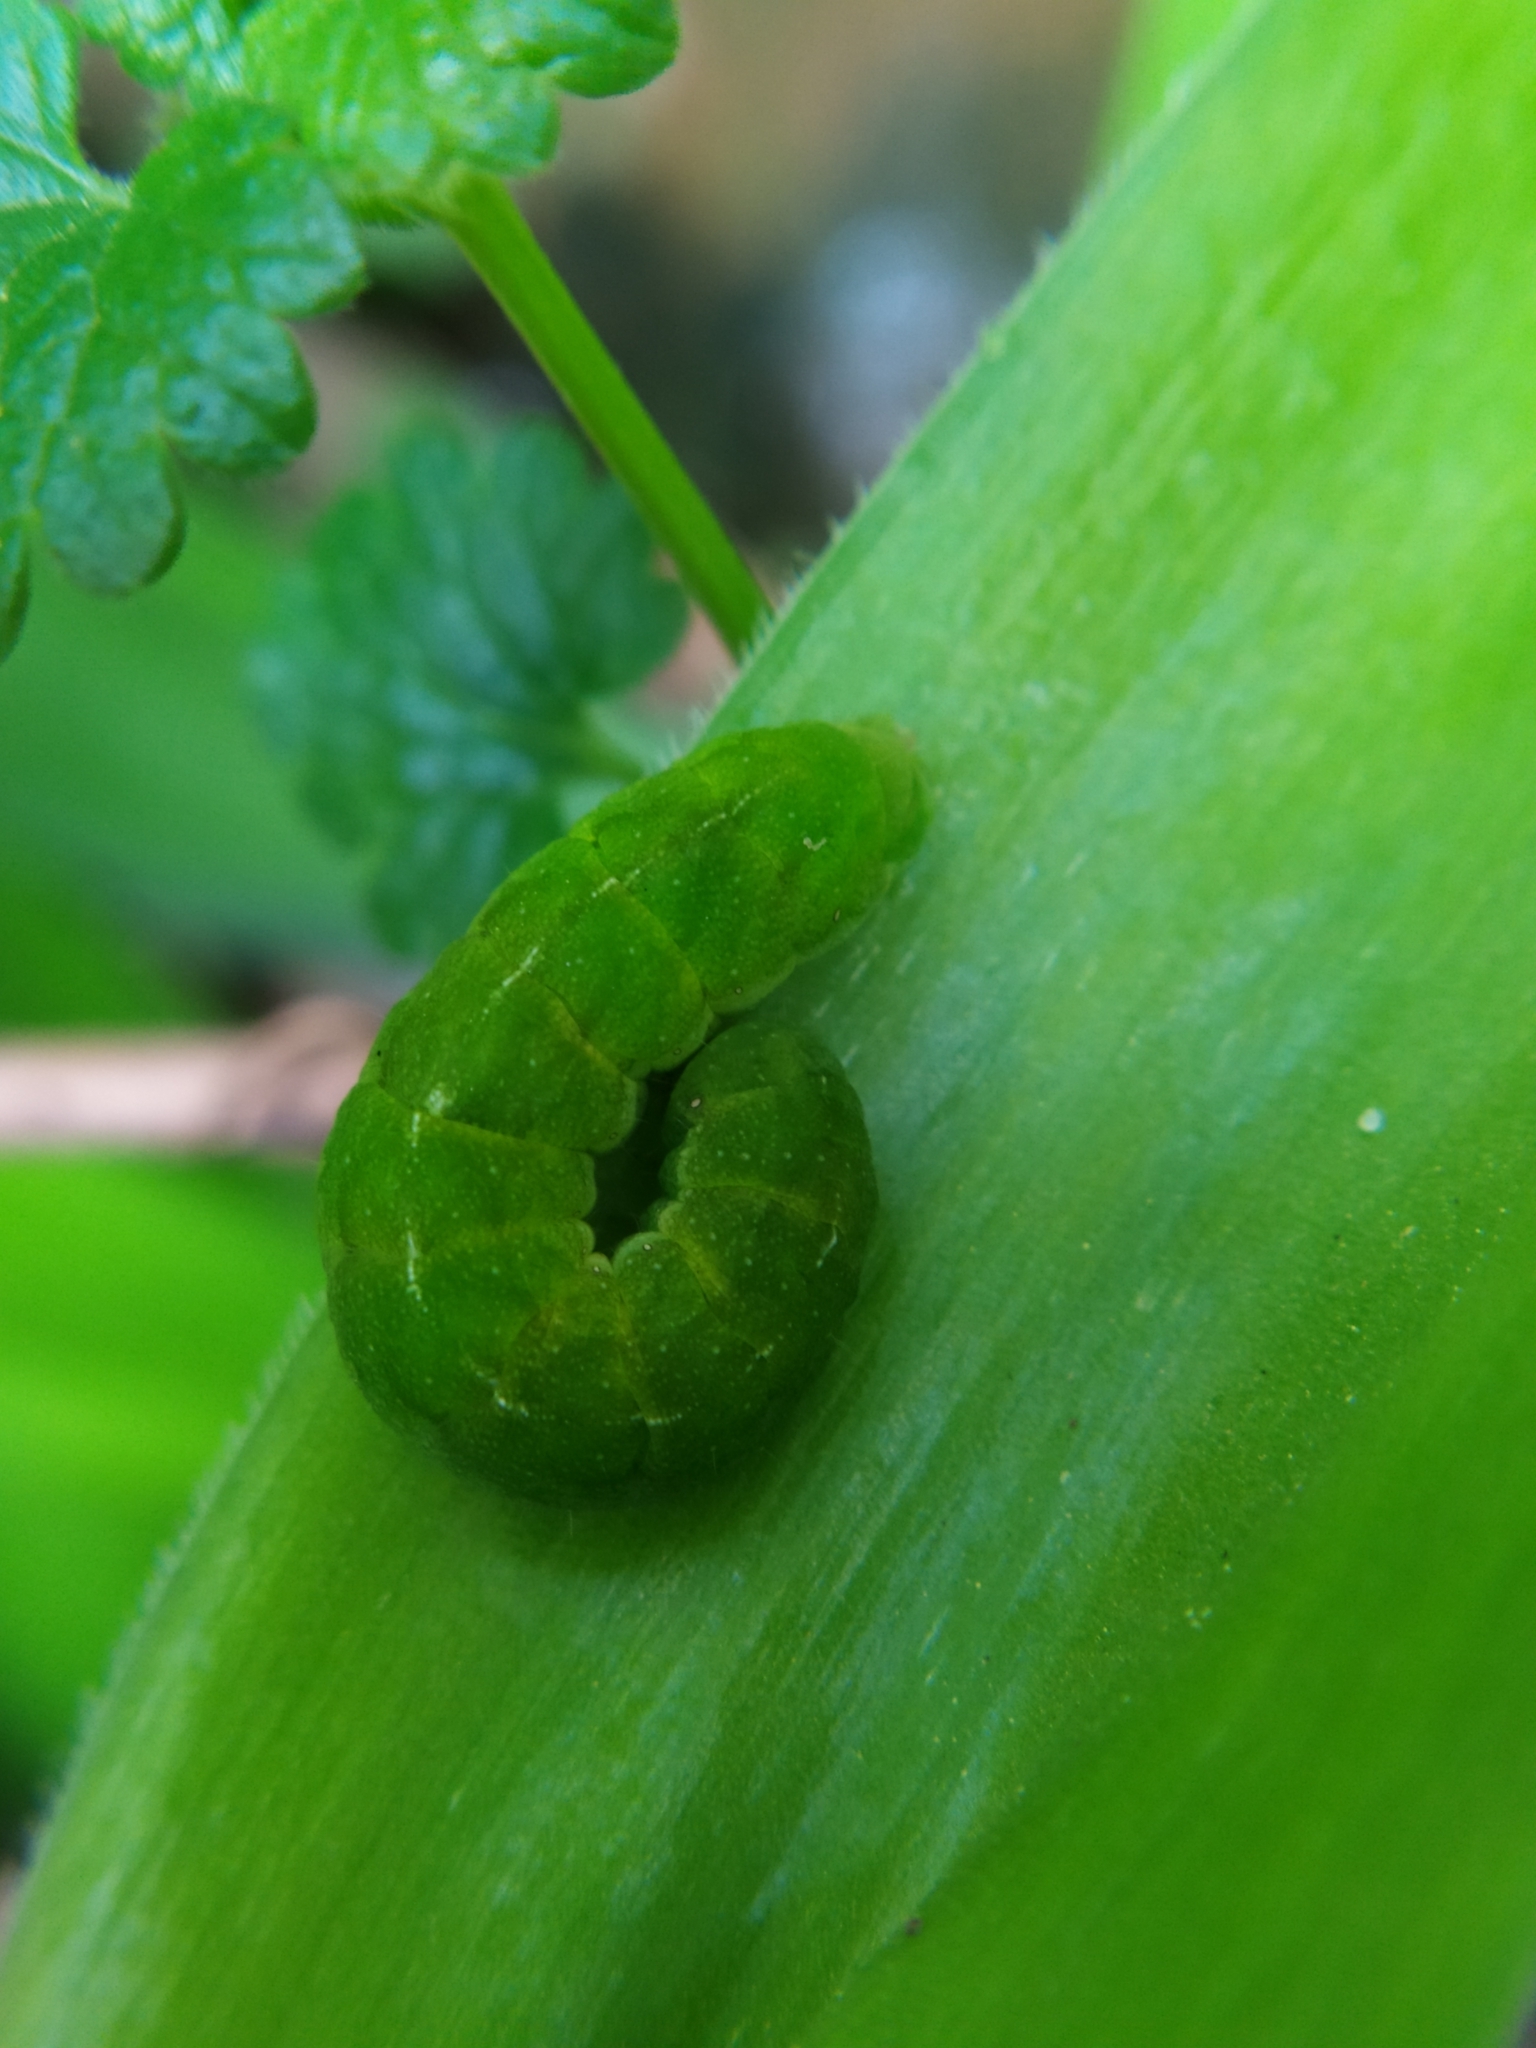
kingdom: Animalia
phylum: Arthropoda
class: Insecta
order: Lepidoptera
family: Noctuidae
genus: Phlogophora
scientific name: Phlogophora meticulosa
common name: Angle shades
